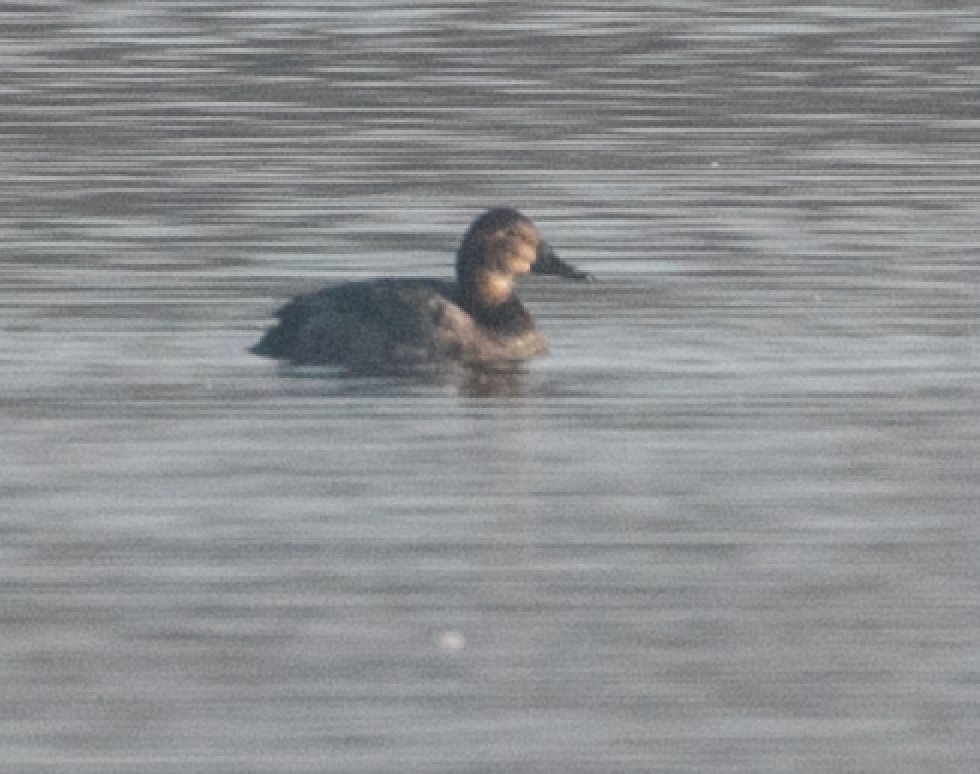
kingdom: Animalia
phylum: Chordata
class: Aves
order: Anseriformes
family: Anatidae
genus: Aythya
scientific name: Aythya ferina
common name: Common pochard
